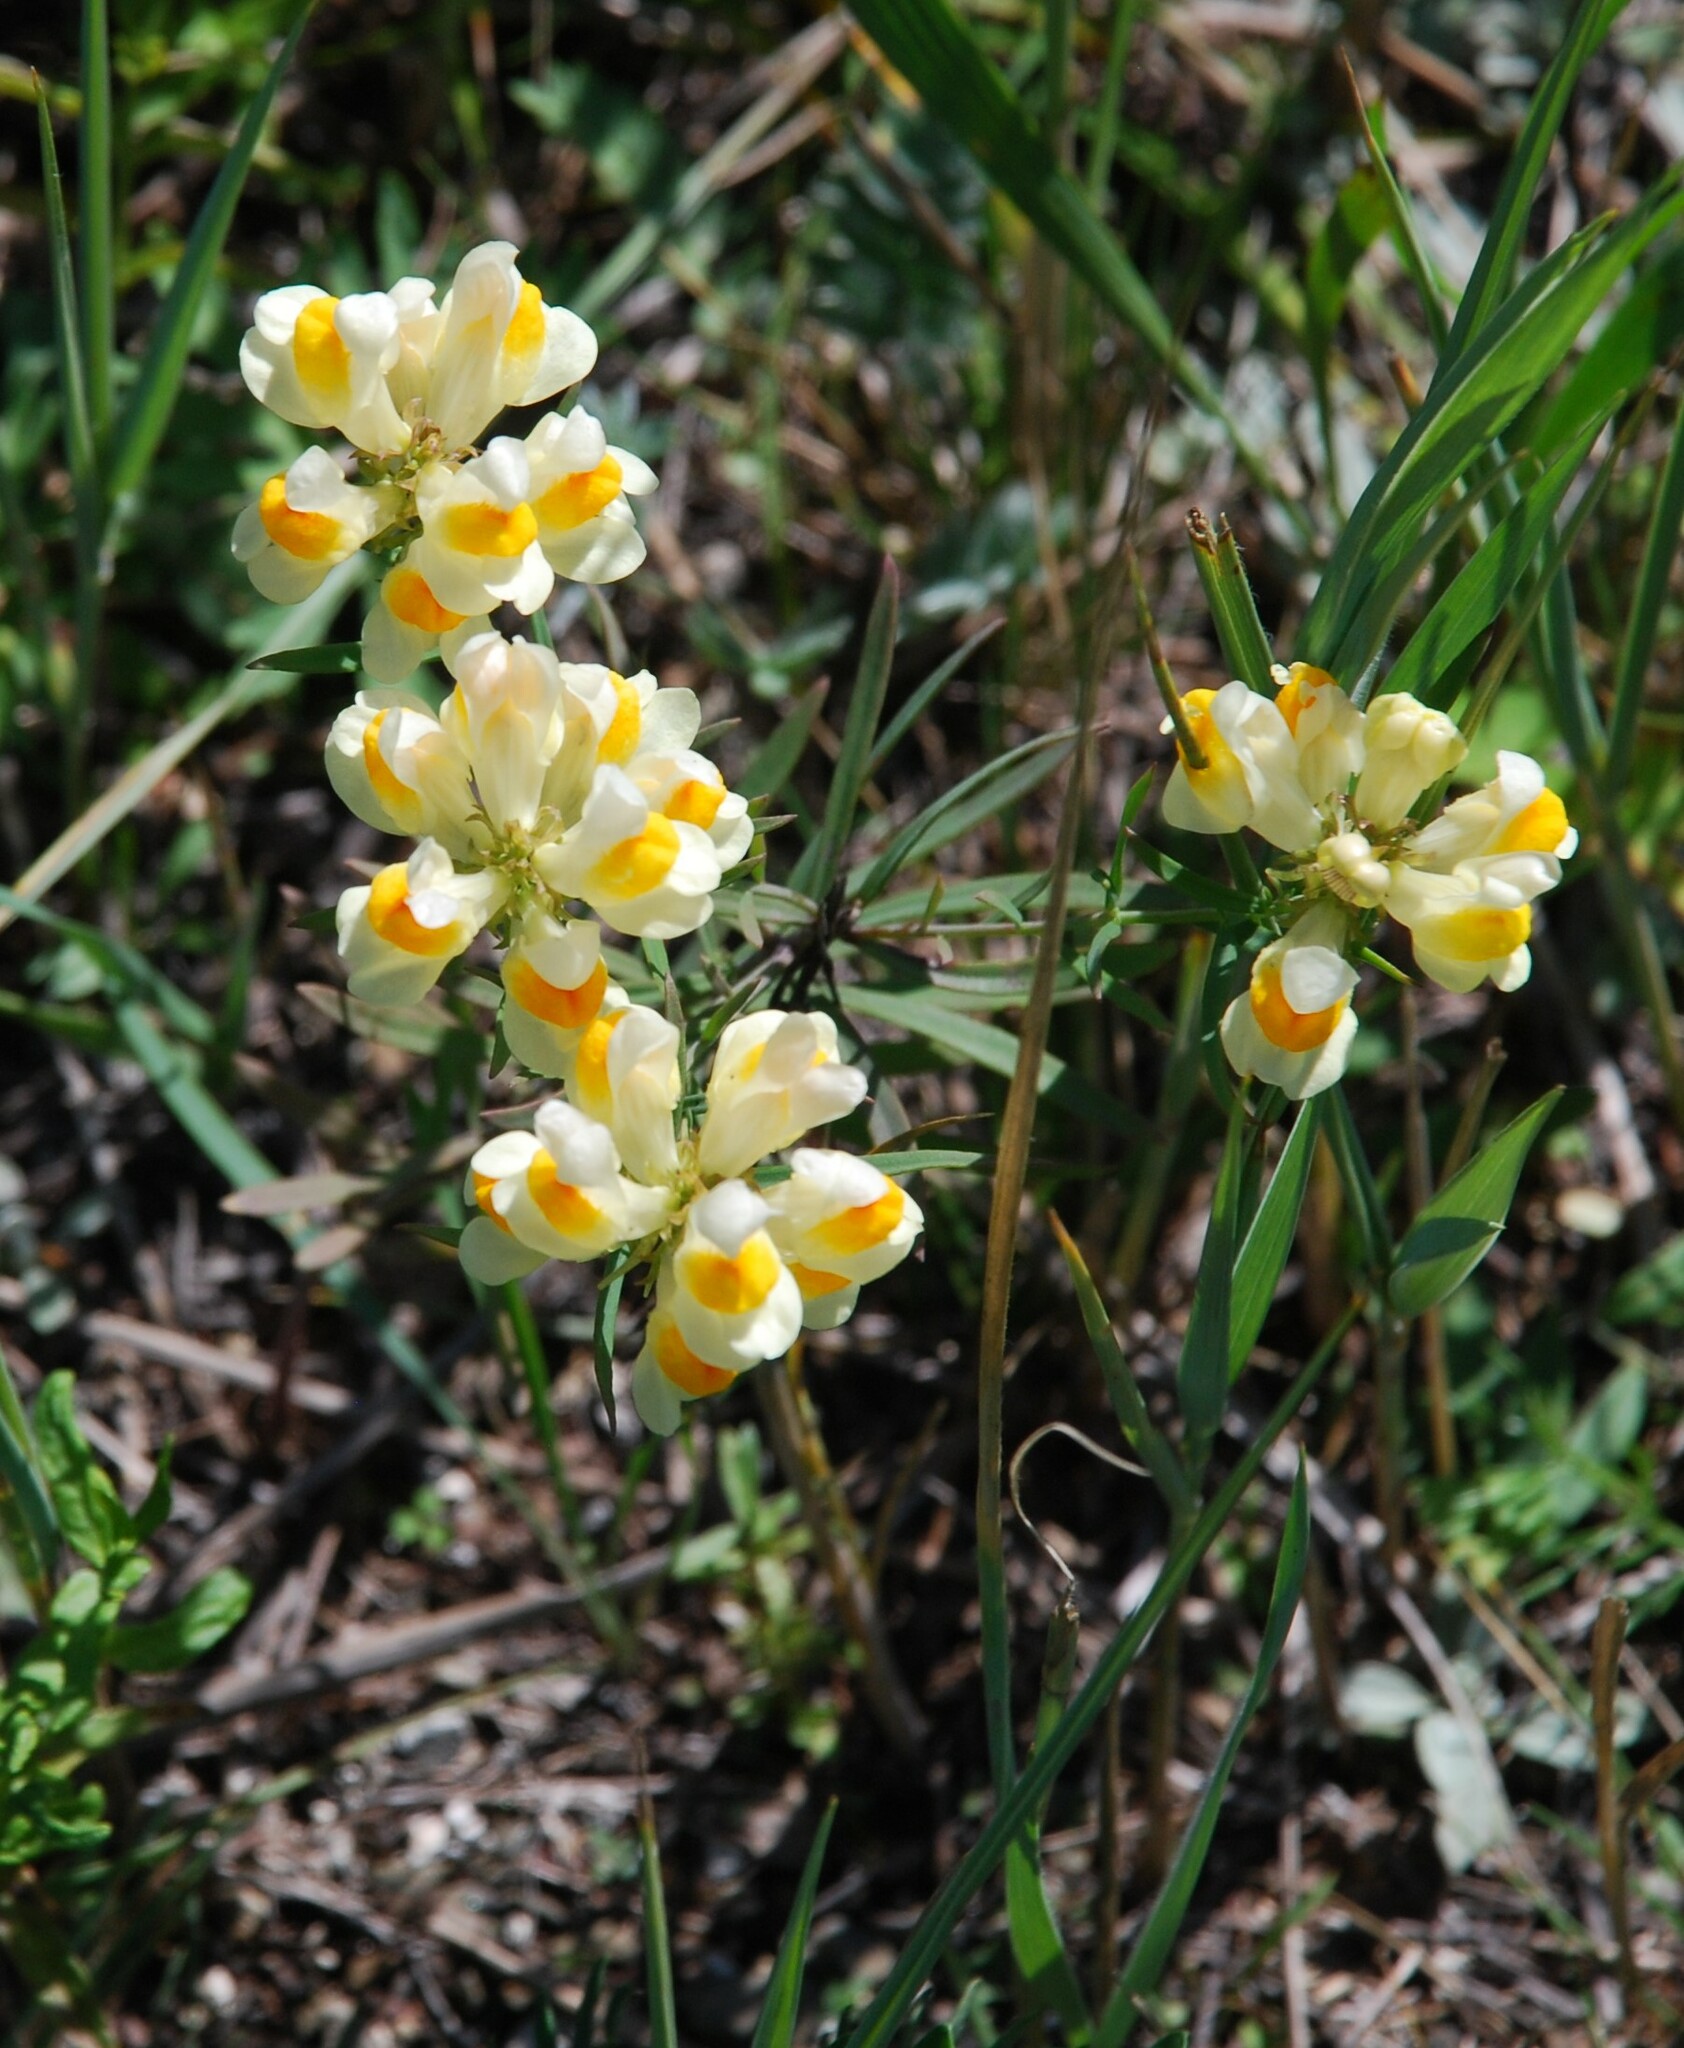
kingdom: Plantae
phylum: Tracheophyta
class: Magnoliopsida
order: Lamiales
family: Plantaginaceae
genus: Linaria
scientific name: Linaria vulgaris
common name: Butter and eggs
